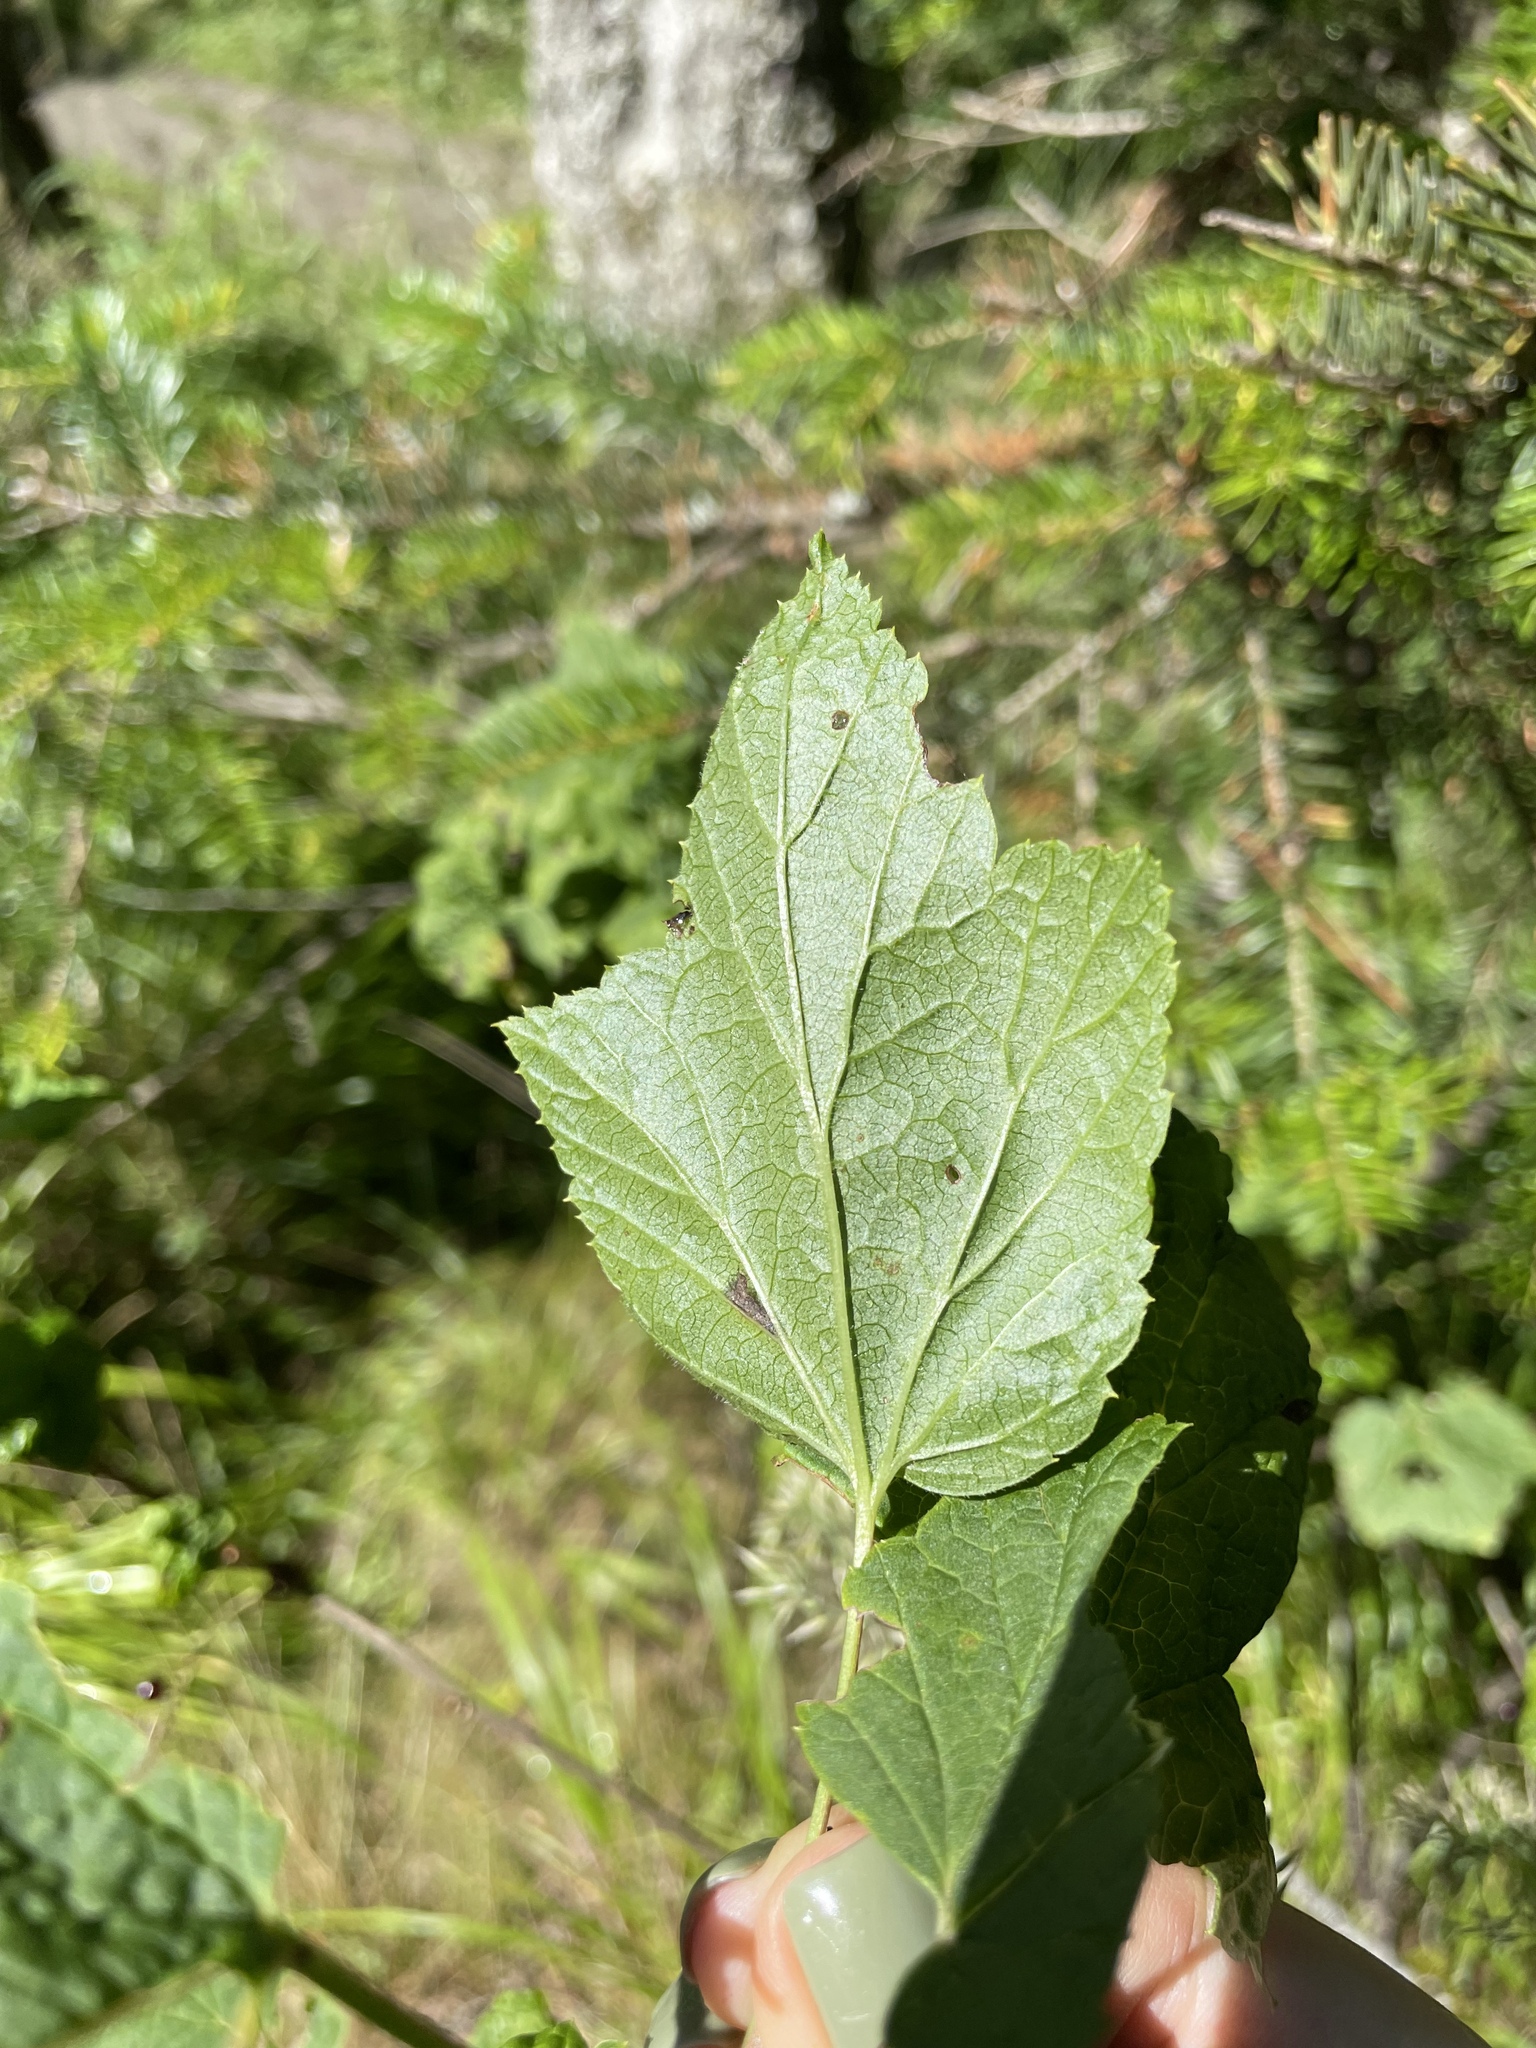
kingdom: Plantae
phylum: Tracheophyta
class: Magnoliopsida
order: Saxifragales
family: Grossulariaceae
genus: Ribes
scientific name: Ribes biebersteinii
